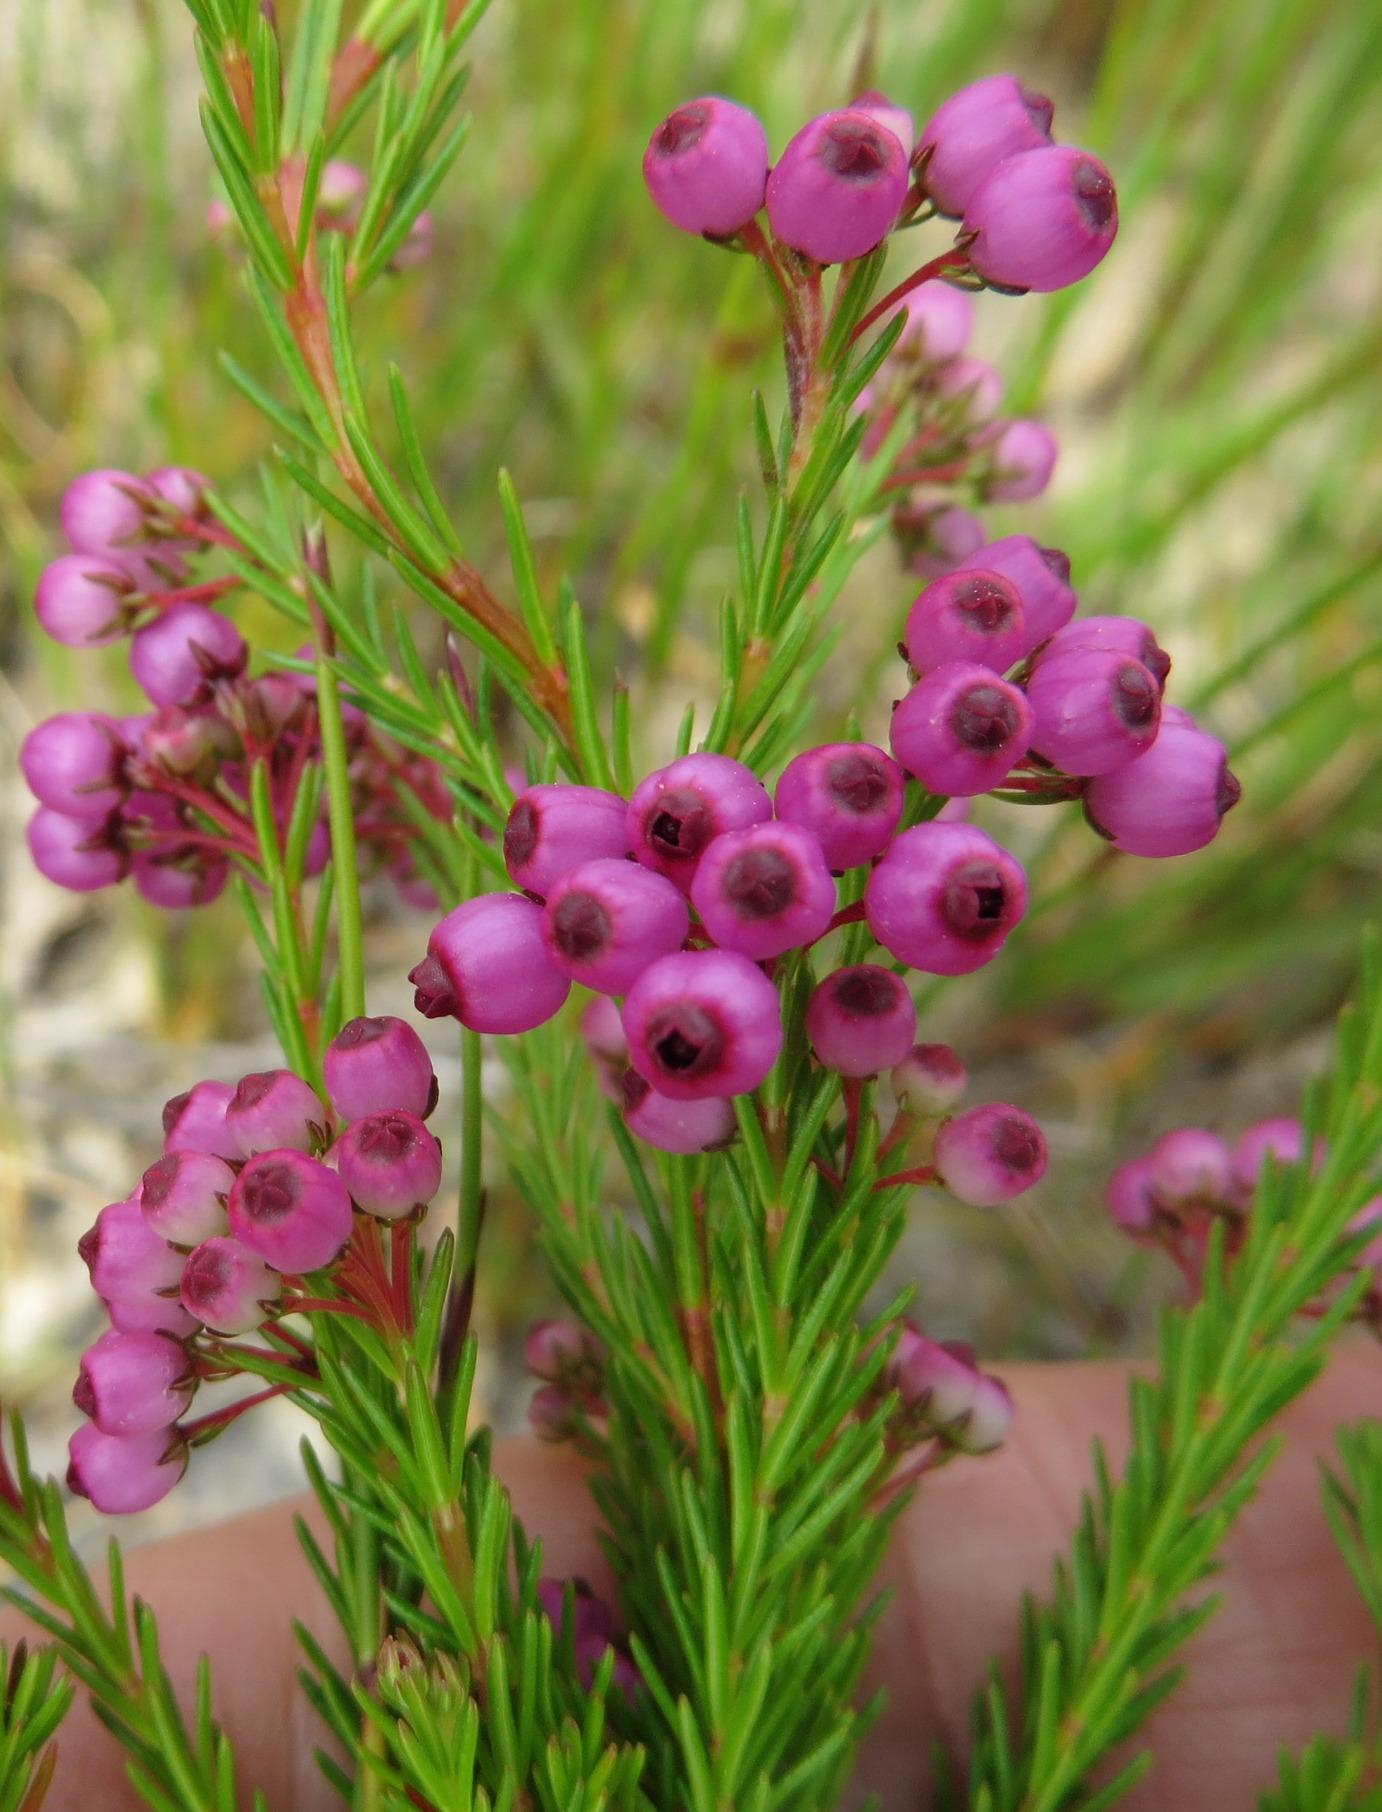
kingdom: Plantae
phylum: Tracheophyta
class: Magnoliopsida
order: Ericales
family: Ericaceae
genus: Erica
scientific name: Erica multumbellifera
